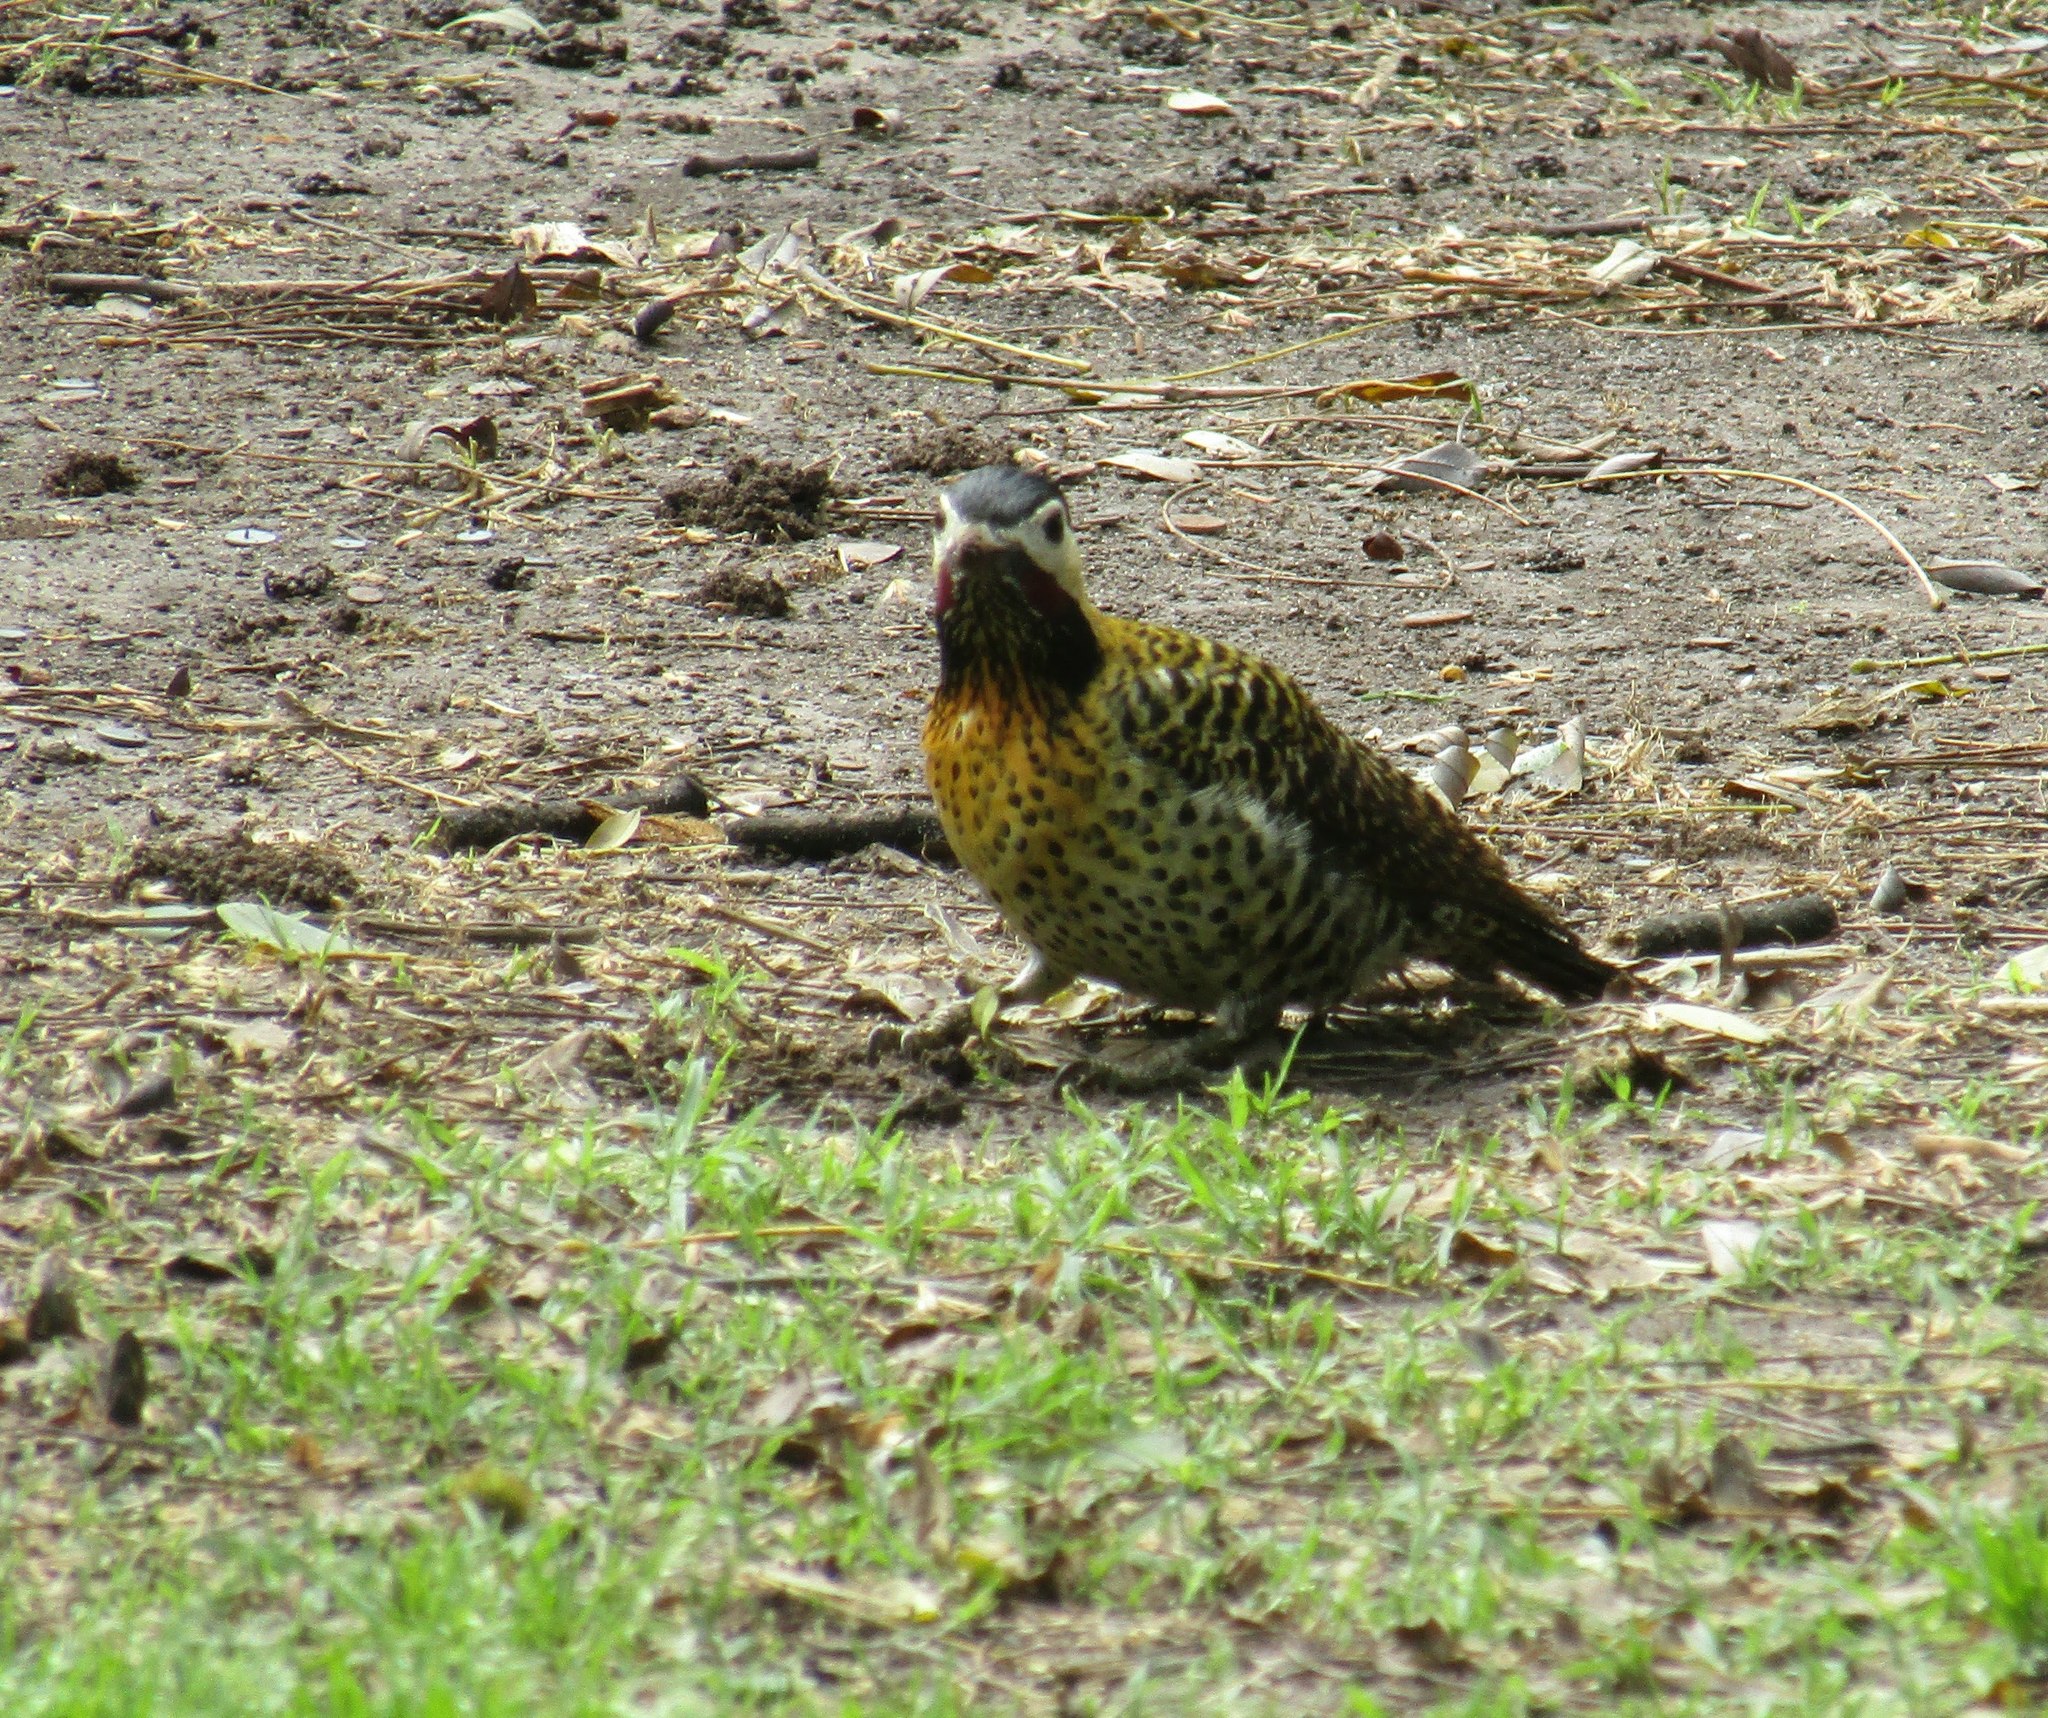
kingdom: Animalia
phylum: Chordata
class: Aves
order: Piciformes
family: Picidae
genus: Colaptes
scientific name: Colaptes melanochloros
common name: Green-barred woodpecker
